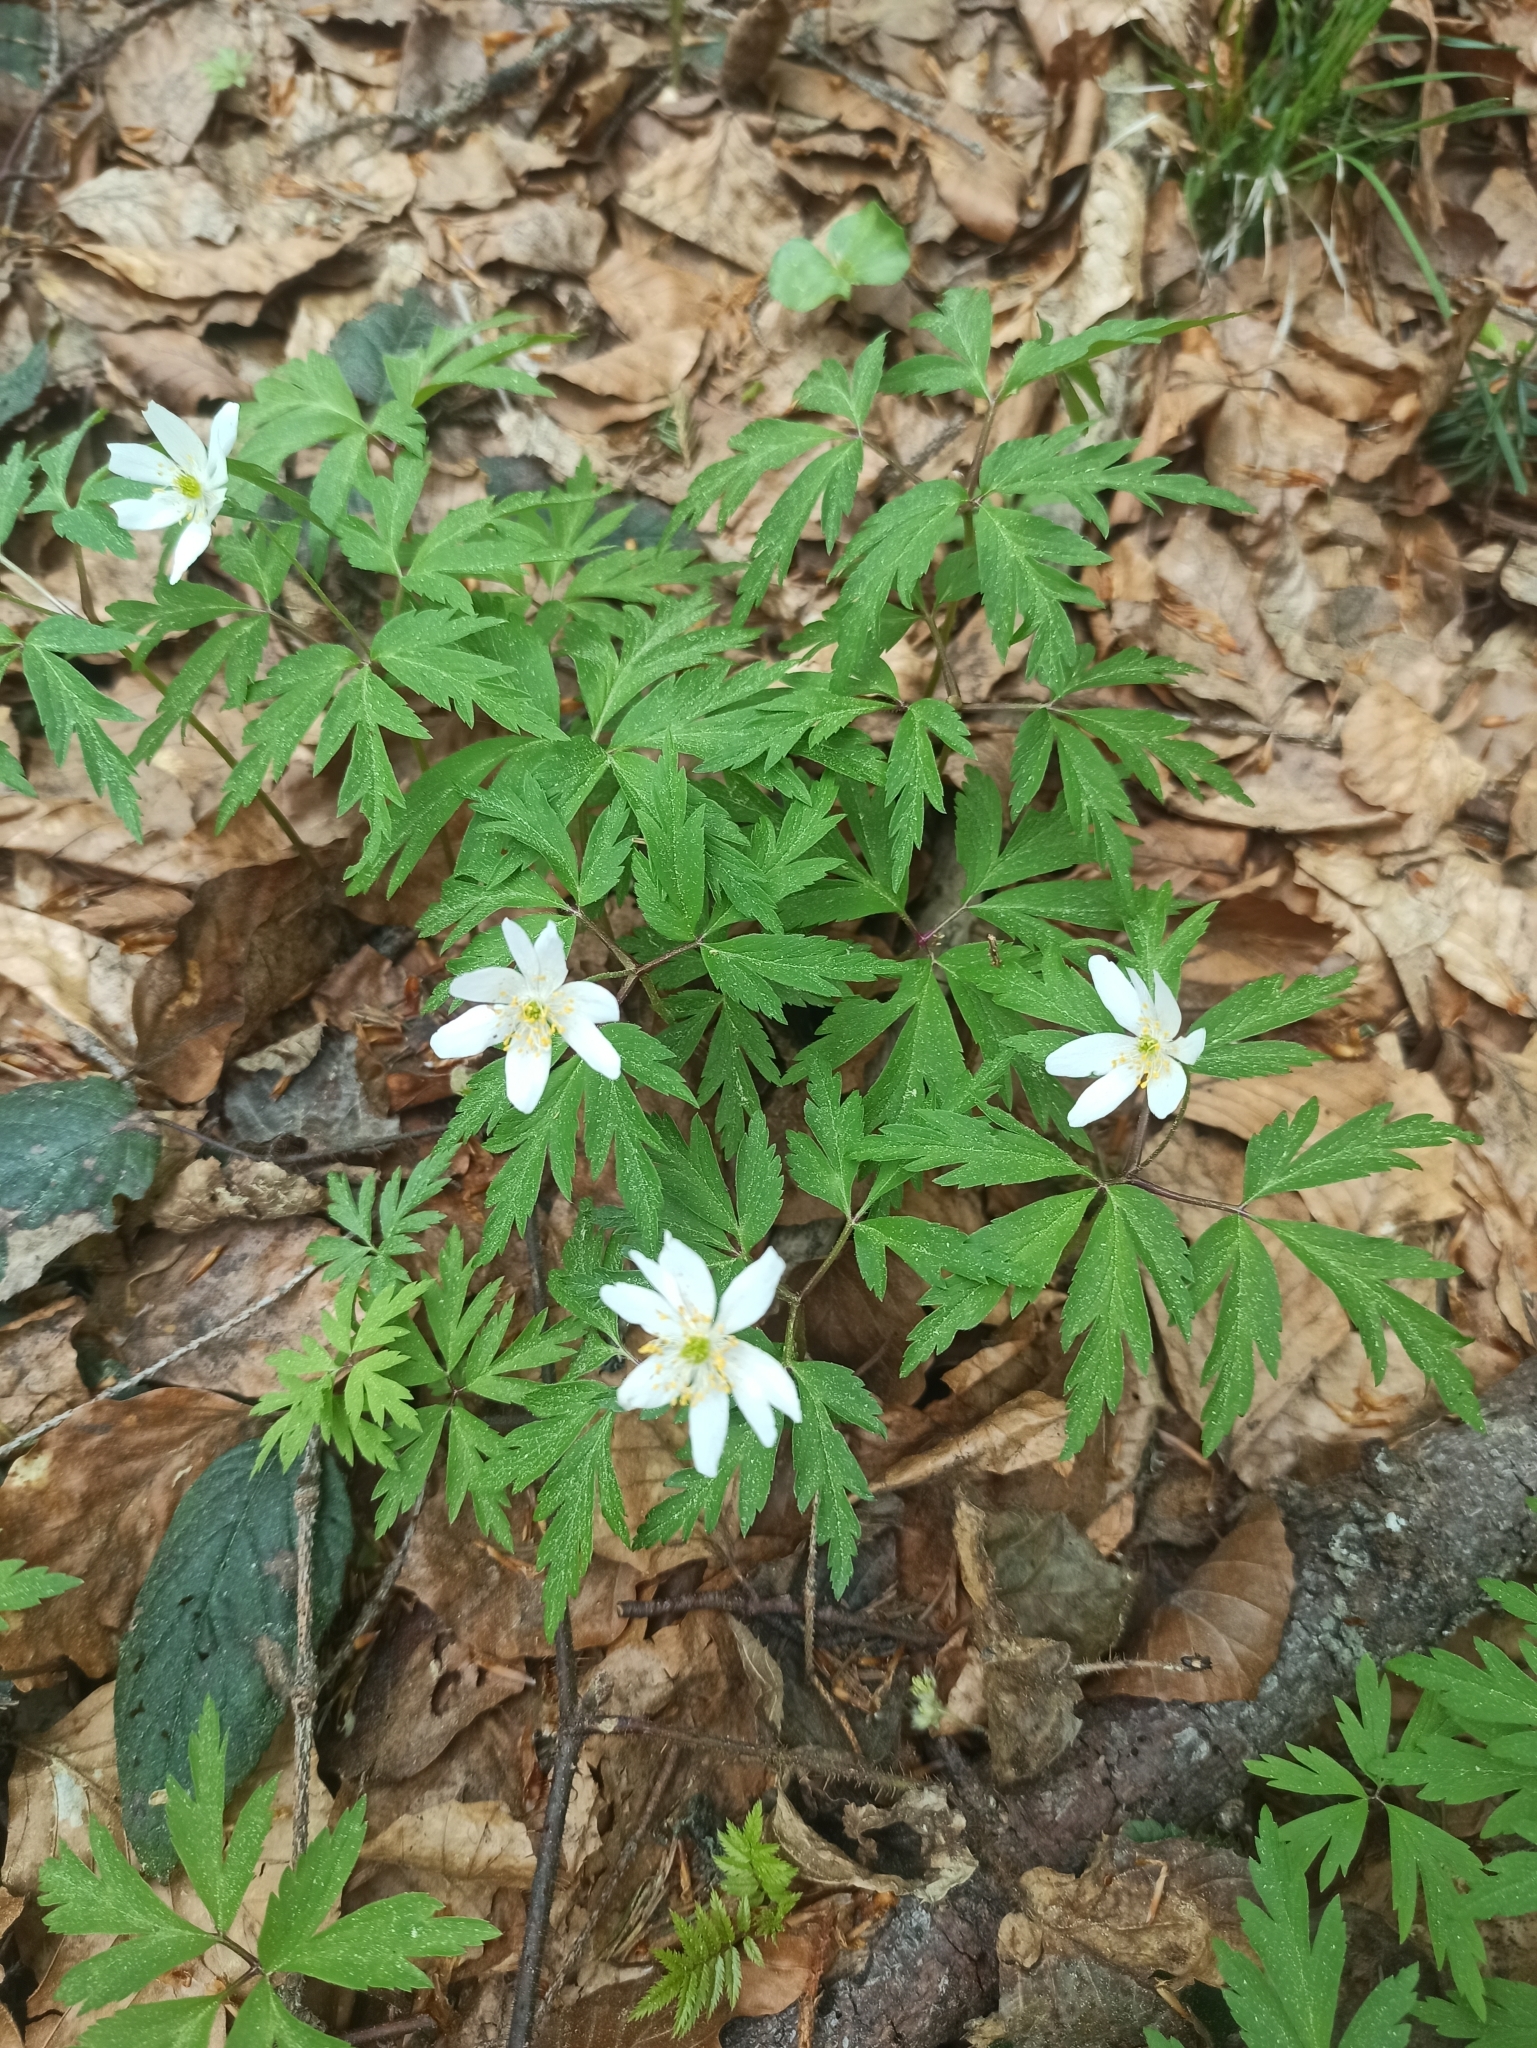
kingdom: Plantae
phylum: Tracheophyta
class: Magnoliopsida
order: Ranunculales
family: Ranunculaceae
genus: Anemone
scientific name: Anemone nemorosa
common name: Wood anemone
